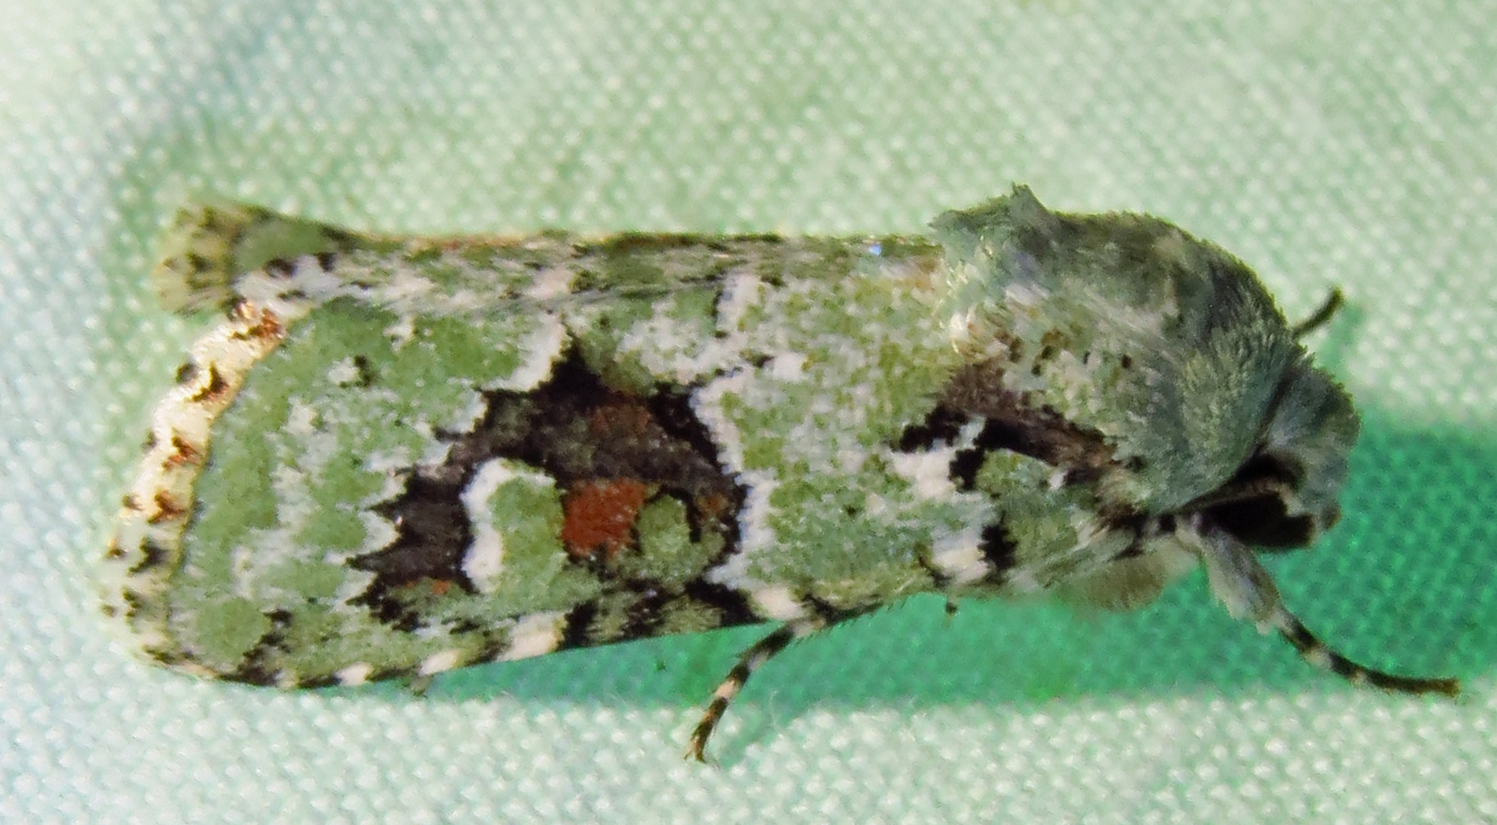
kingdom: Animalia
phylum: Arthropoda
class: Insecta
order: Lepidoptera
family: Noctuidae
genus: Lacinipolia
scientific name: Lacinipolia laudabilis
